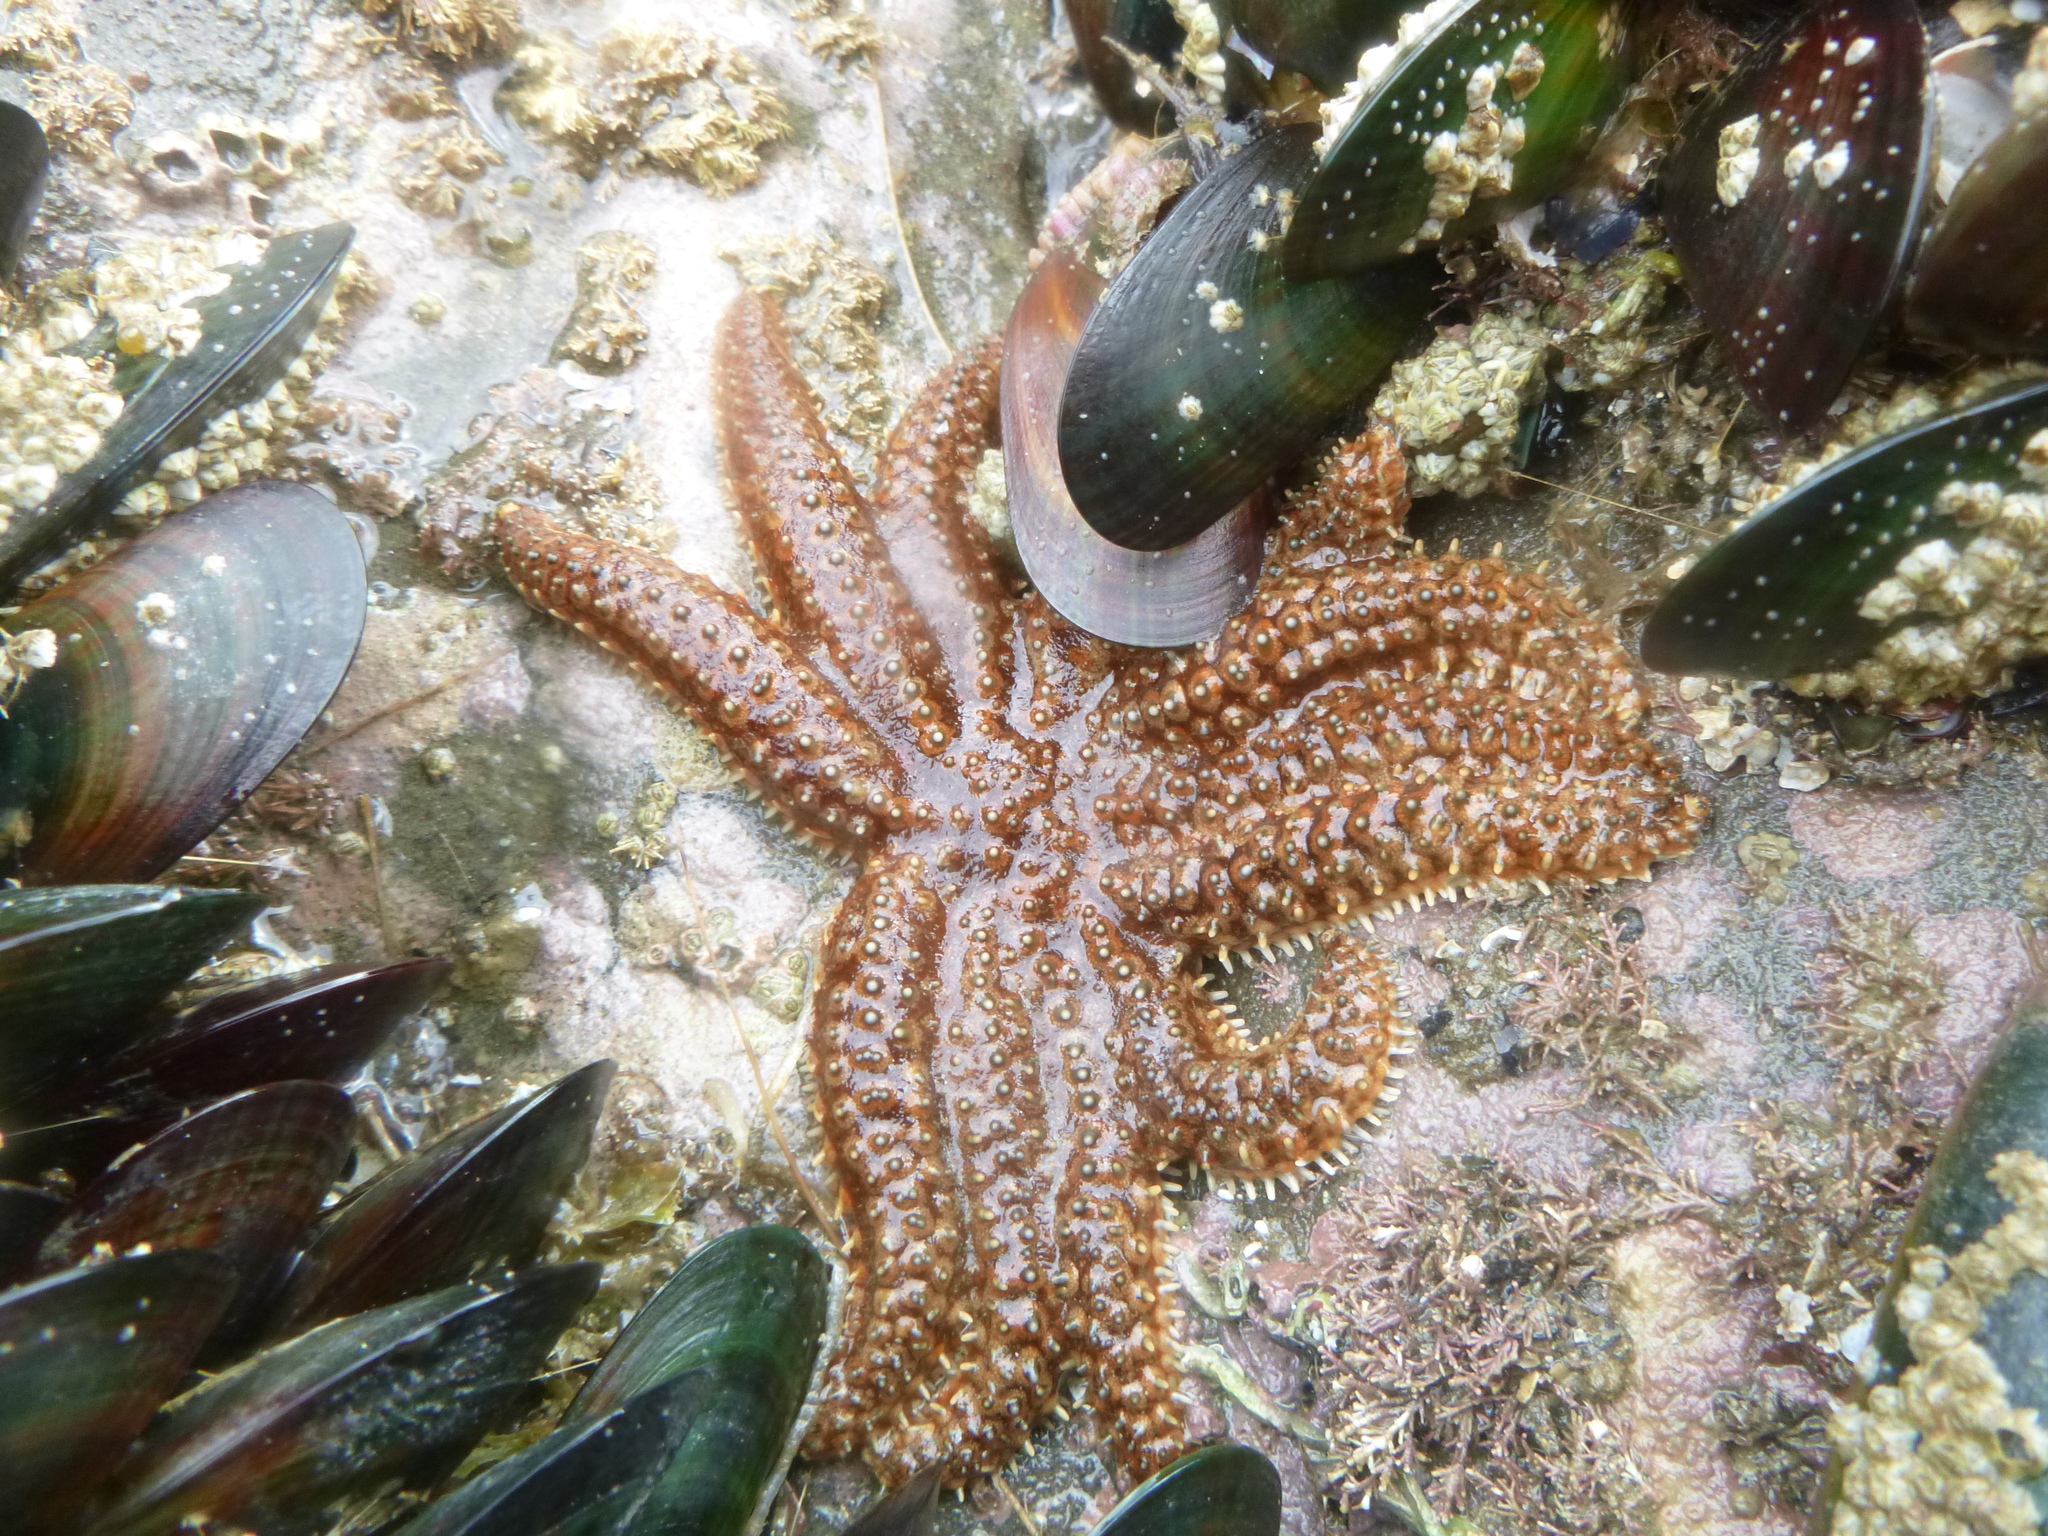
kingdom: Animalia
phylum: Echinodermata
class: Asteroidea
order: Forcipulatida
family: Asteriidae
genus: Coscinasterias
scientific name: Coscinasterias muricata
